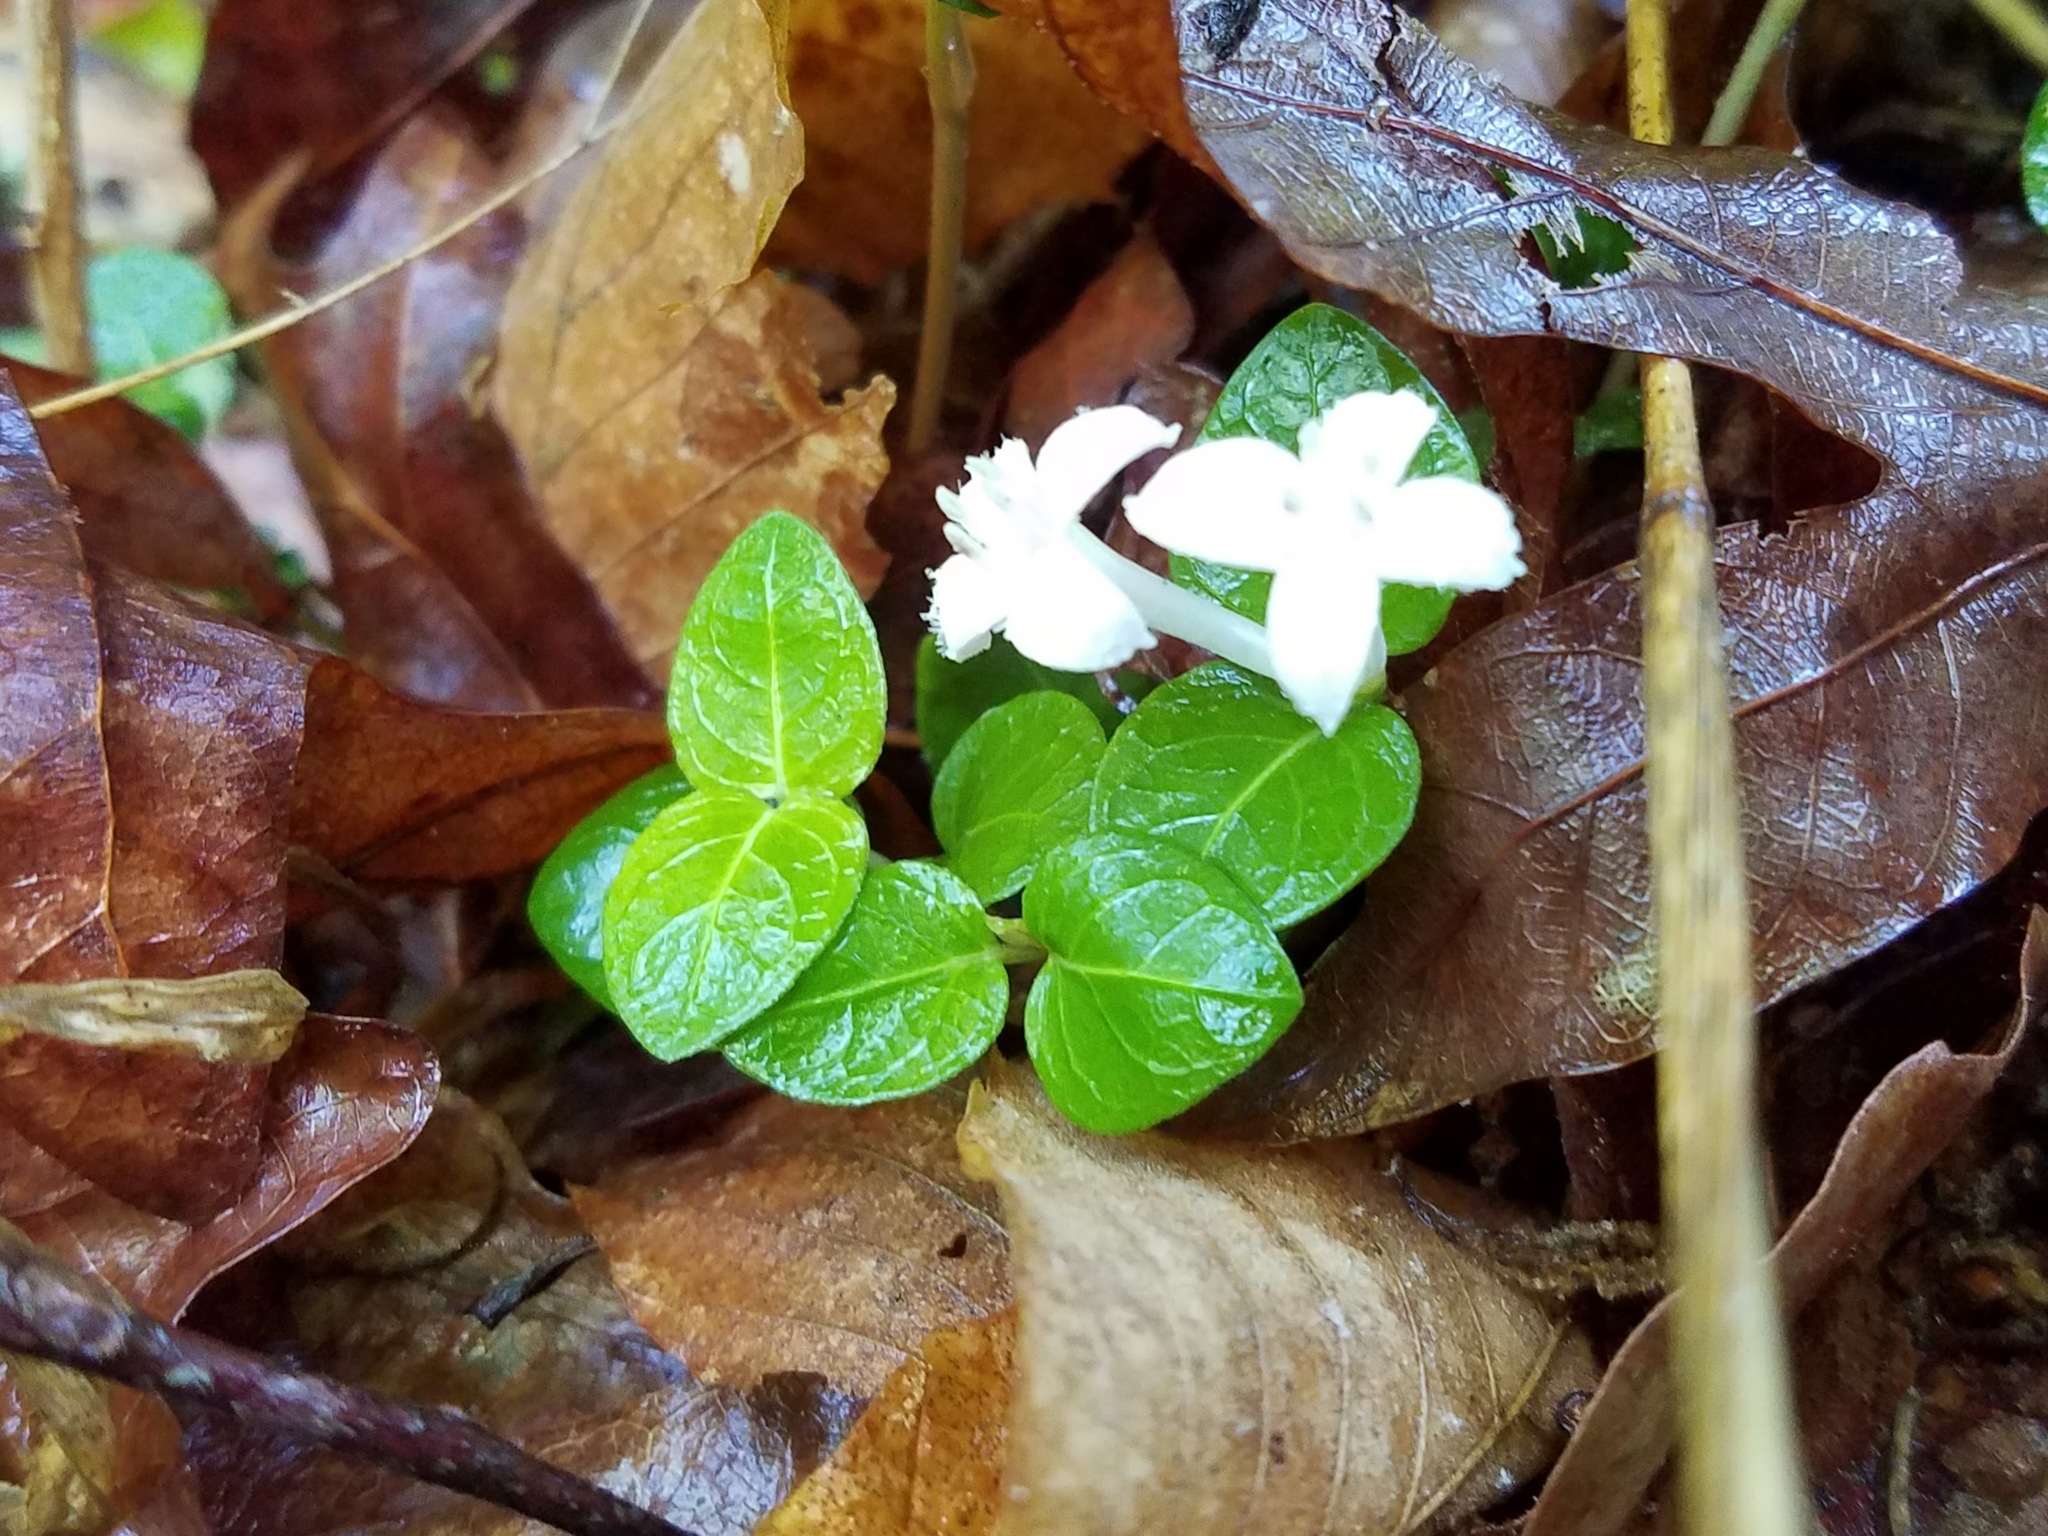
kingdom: Plantae
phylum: Tracheophyta
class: Magnoliopsida
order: Gentianales
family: Rubiaceae
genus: Mitchella
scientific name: Mitchella repens
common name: Partridge-berry
